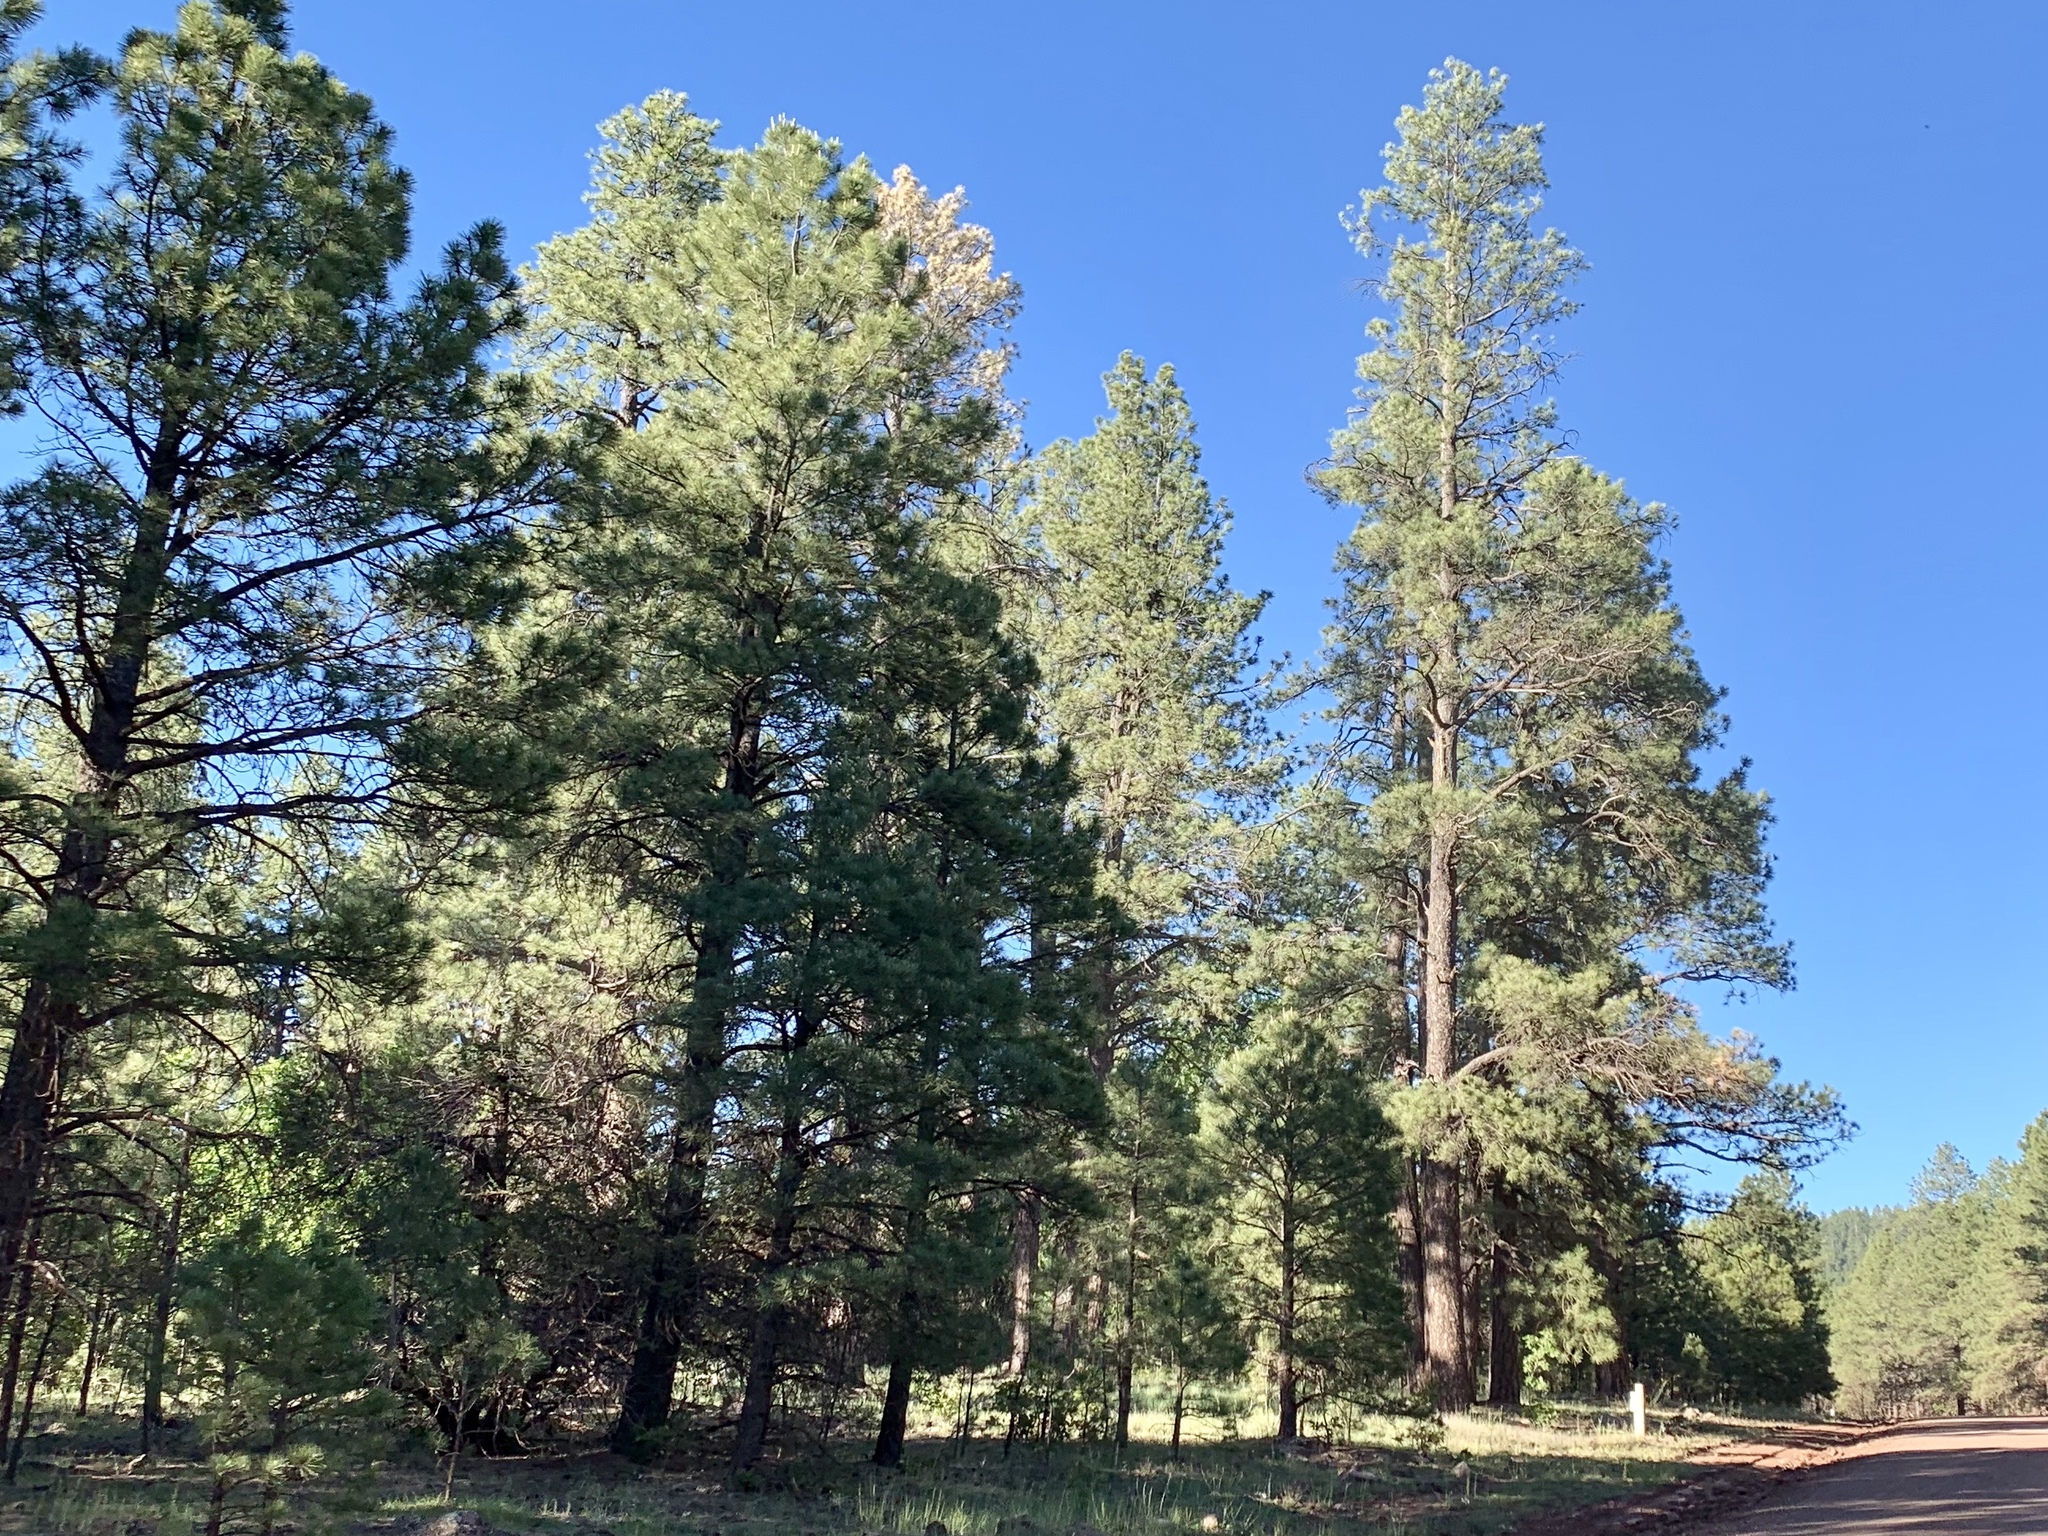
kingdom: Plantae
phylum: Tracheophyta
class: Pinopsida
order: Pinales
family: Pinaceae
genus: Pinus
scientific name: Pinus ponderosa
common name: Western yellow-pine
